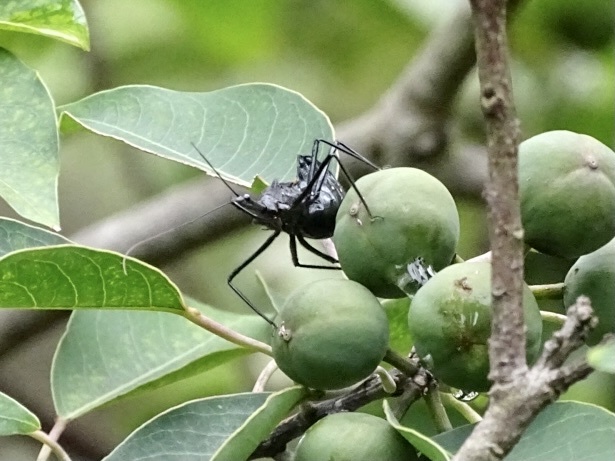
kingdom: Animalia
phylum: Arthropoda
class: Insecta
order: Hemiptera
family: Reduviidae
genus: Sycanus
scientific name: Sycanus croceovittatus
